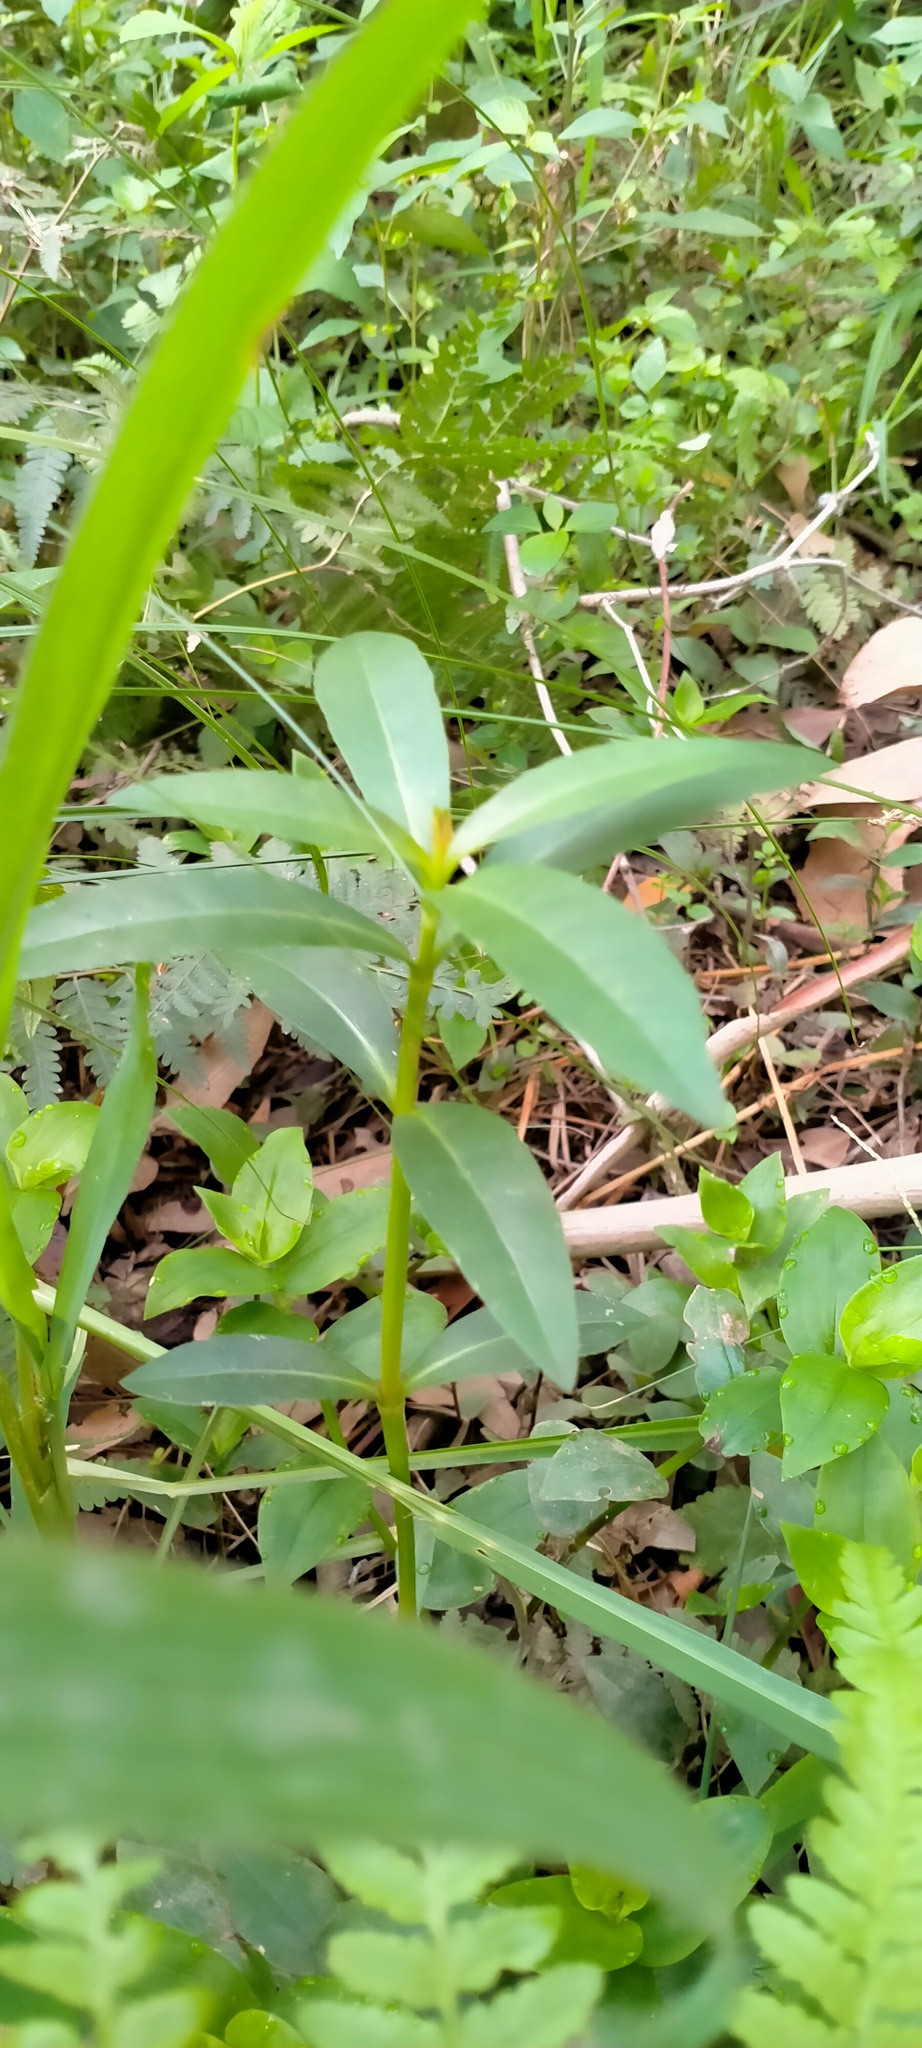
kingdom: Plantae
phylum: Tracheophyta
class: Magnoliopsida
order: Caryophyllales
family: Amaranthaceae
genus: Alternanthera
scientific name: Alternanthera philoxeroides
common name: Alligatorweed
